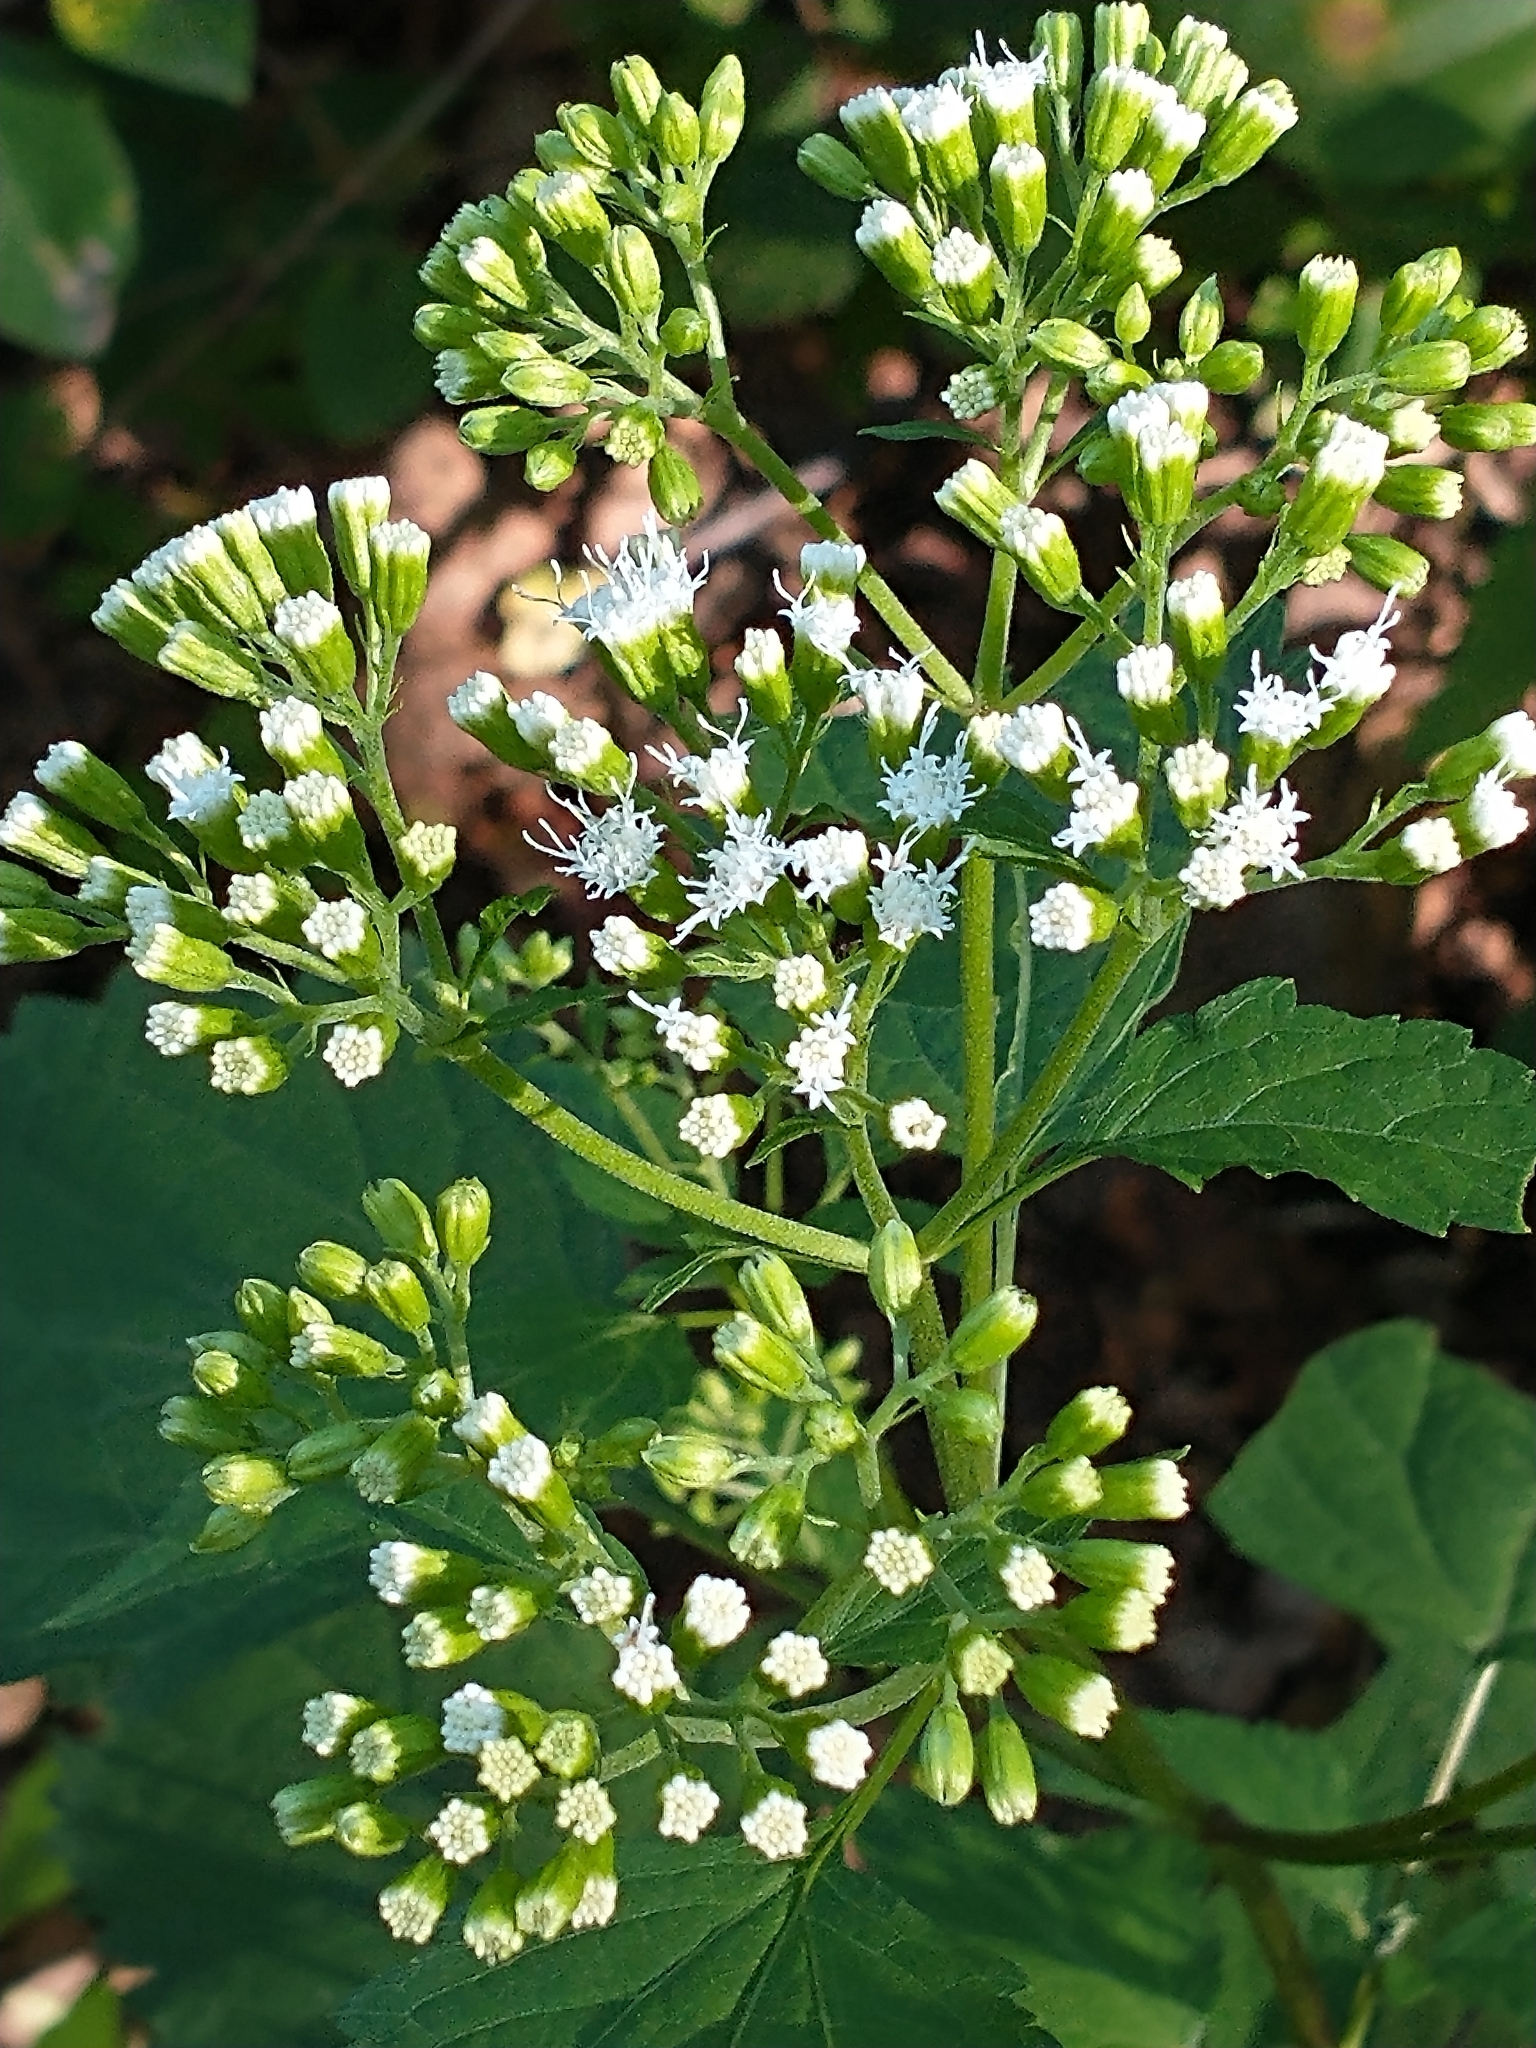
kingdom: Plantae
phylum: Tracheophyta
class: Magnoliopsida
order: Asterales
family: Asteraceae
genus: Ageratina
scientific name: Ageratina altissima
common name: White snakeroot
